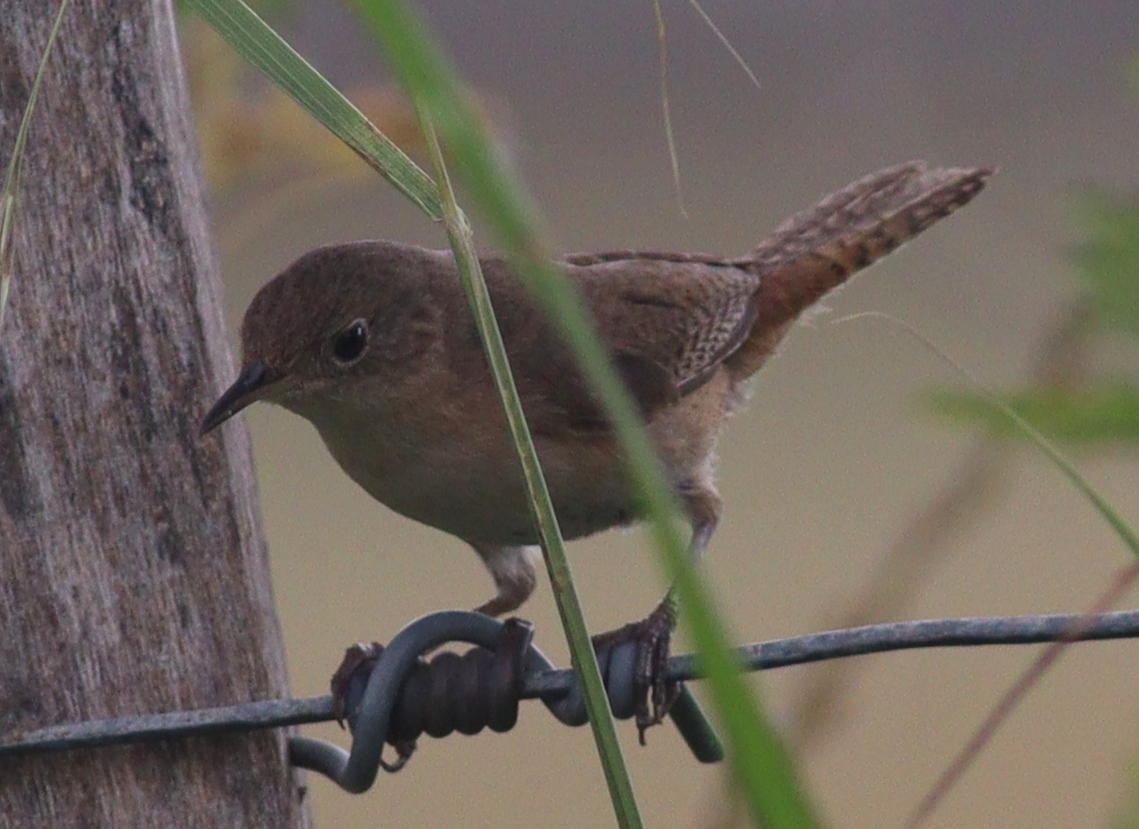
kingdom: Animalia
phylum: Chordata
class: Aves
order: Passeriformes
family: Troglodytidae
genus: Troglodytes
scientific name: Troglodytes aedon
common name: House wren
